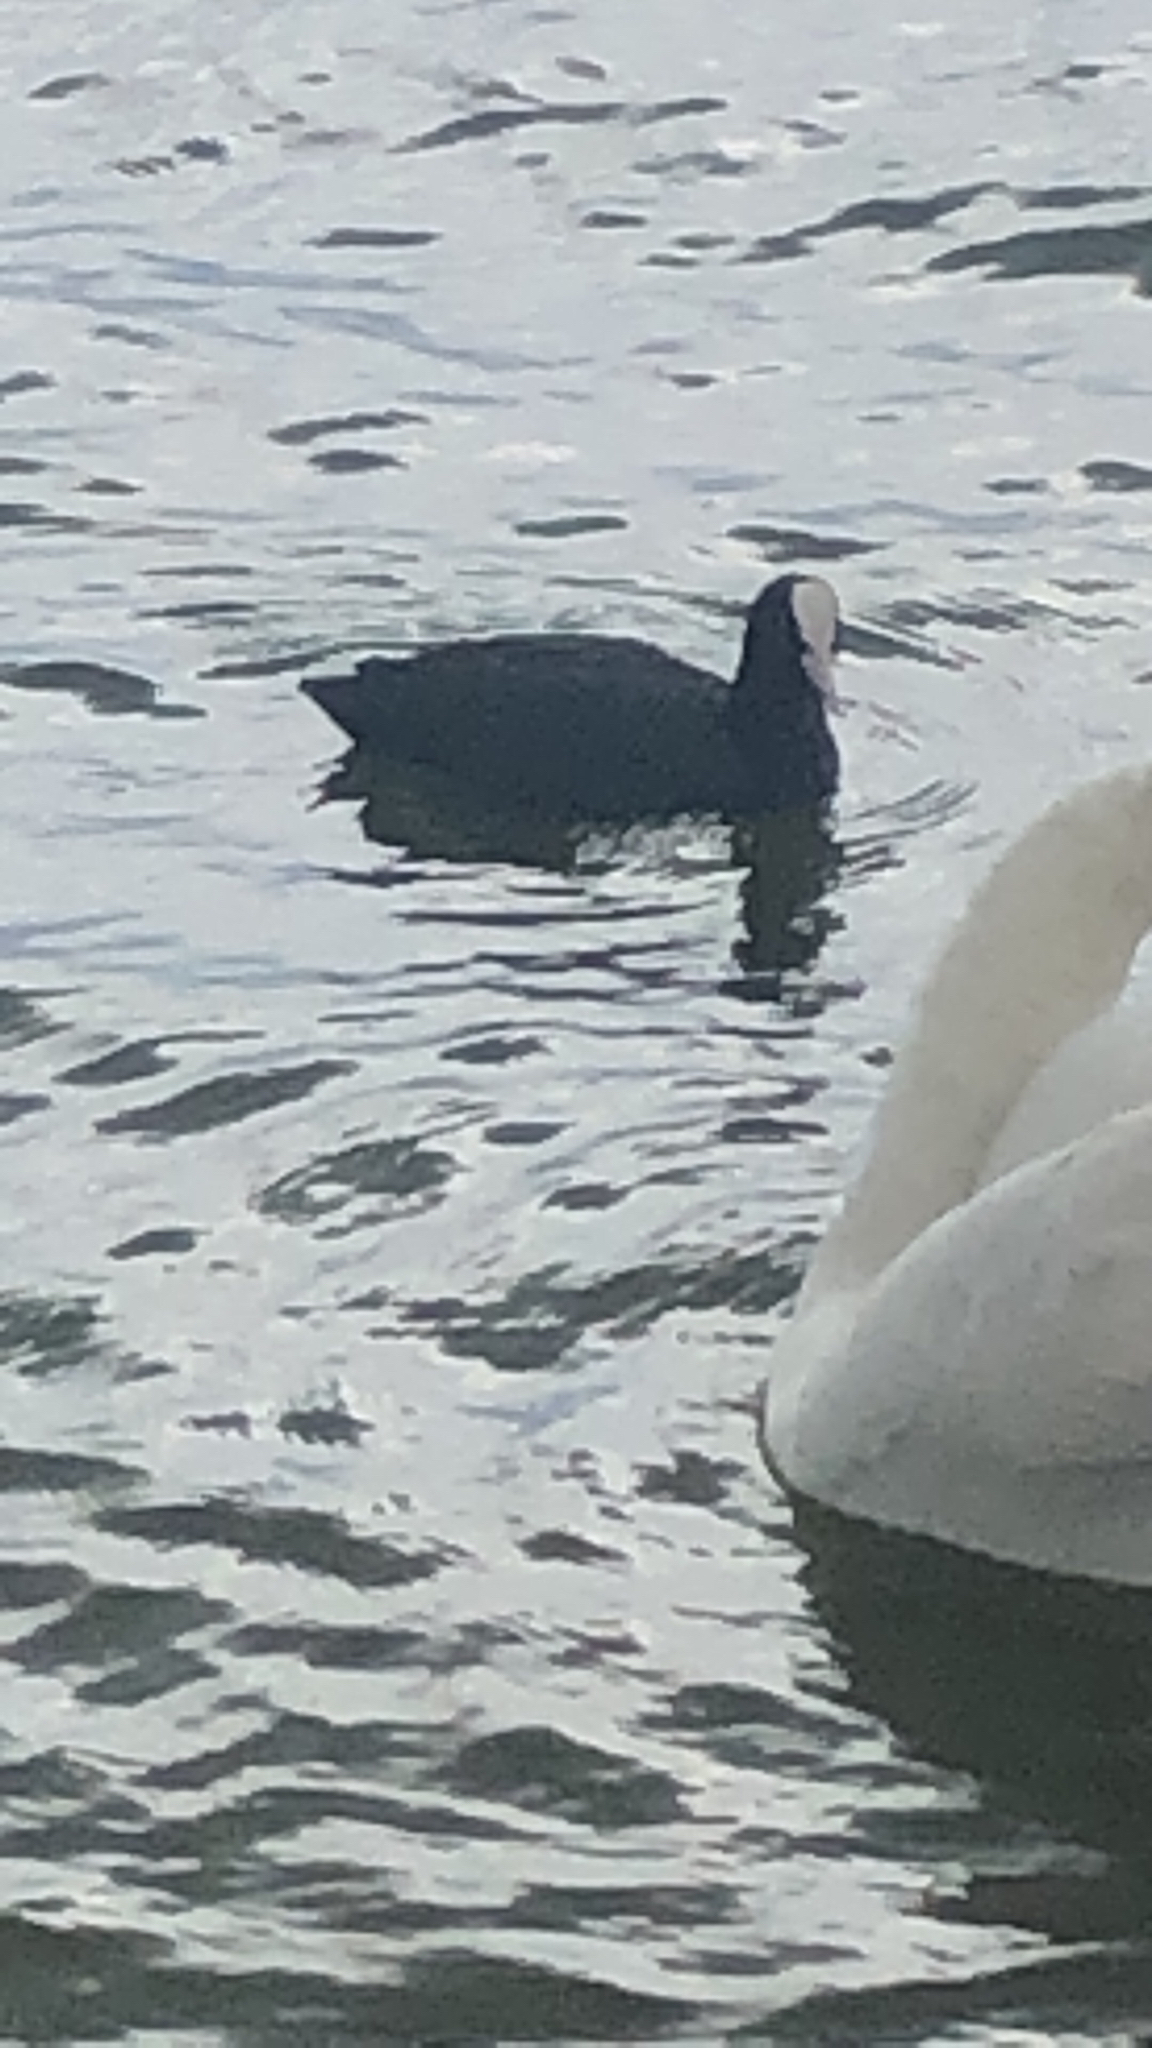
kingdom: Animalia
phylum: Chordata
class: Aves
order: Gruiformes
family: Rallidae
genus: Fulica
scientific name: Fulica atra
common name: Eurasian coot
